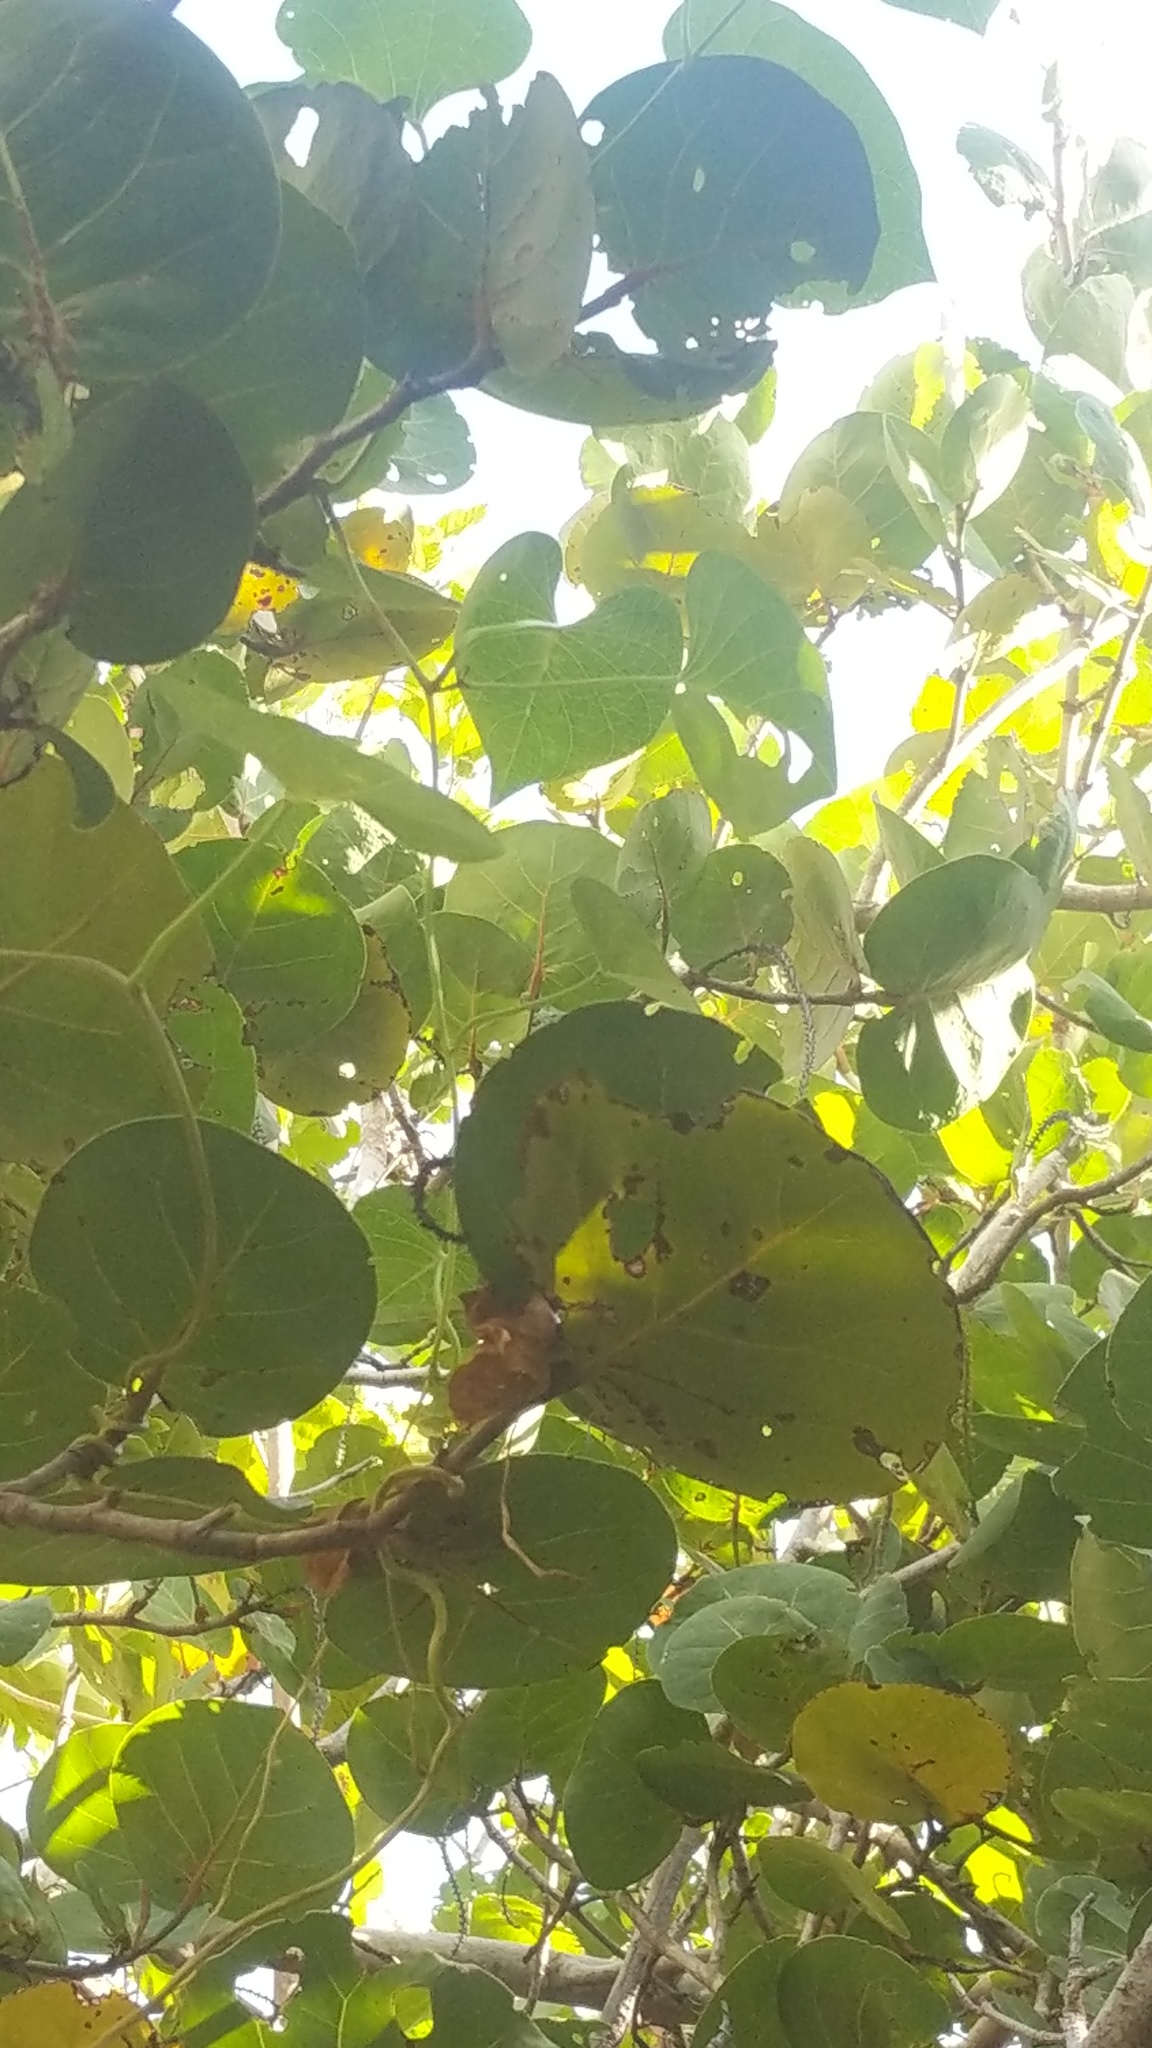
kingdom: Plantae
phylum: Tracheophyta
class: Magnoliopsida
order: Solanales
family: Convolvulaceae
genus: Ipomoea
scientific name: Ipomoea violacea
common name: Beach moonflower
